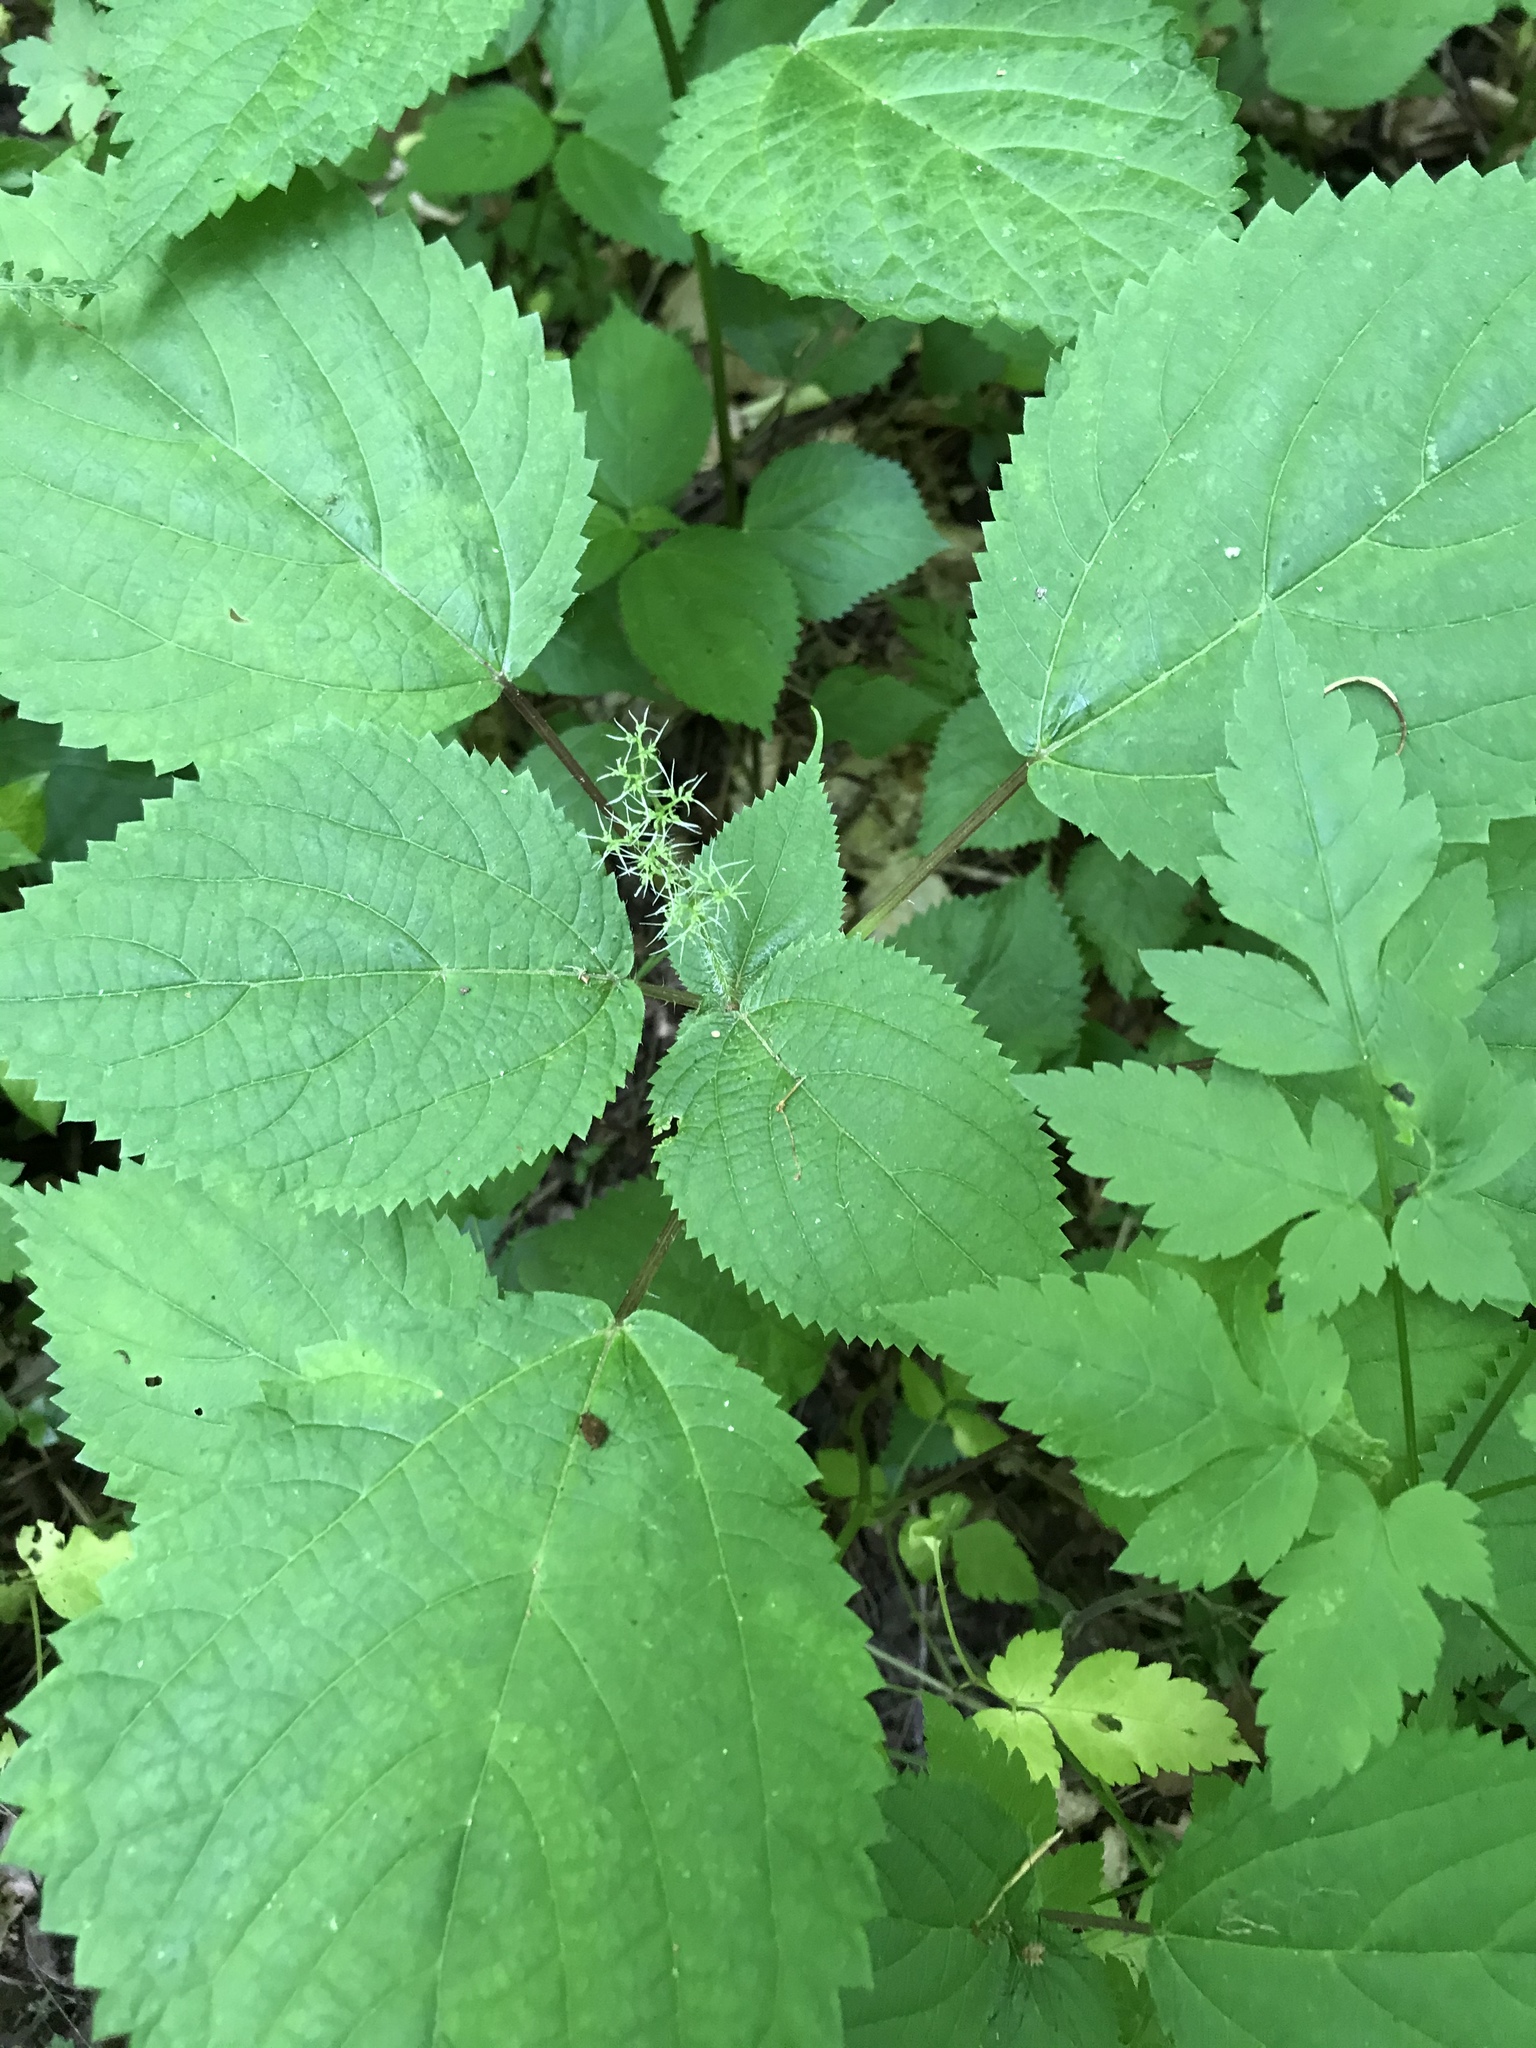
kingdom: Plantae
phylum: Tracheophyta
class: Magnoliopsida
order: Rosales
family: Urticaceae
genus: Laportea
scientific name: Laportea canadensis
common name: Canada nettle
